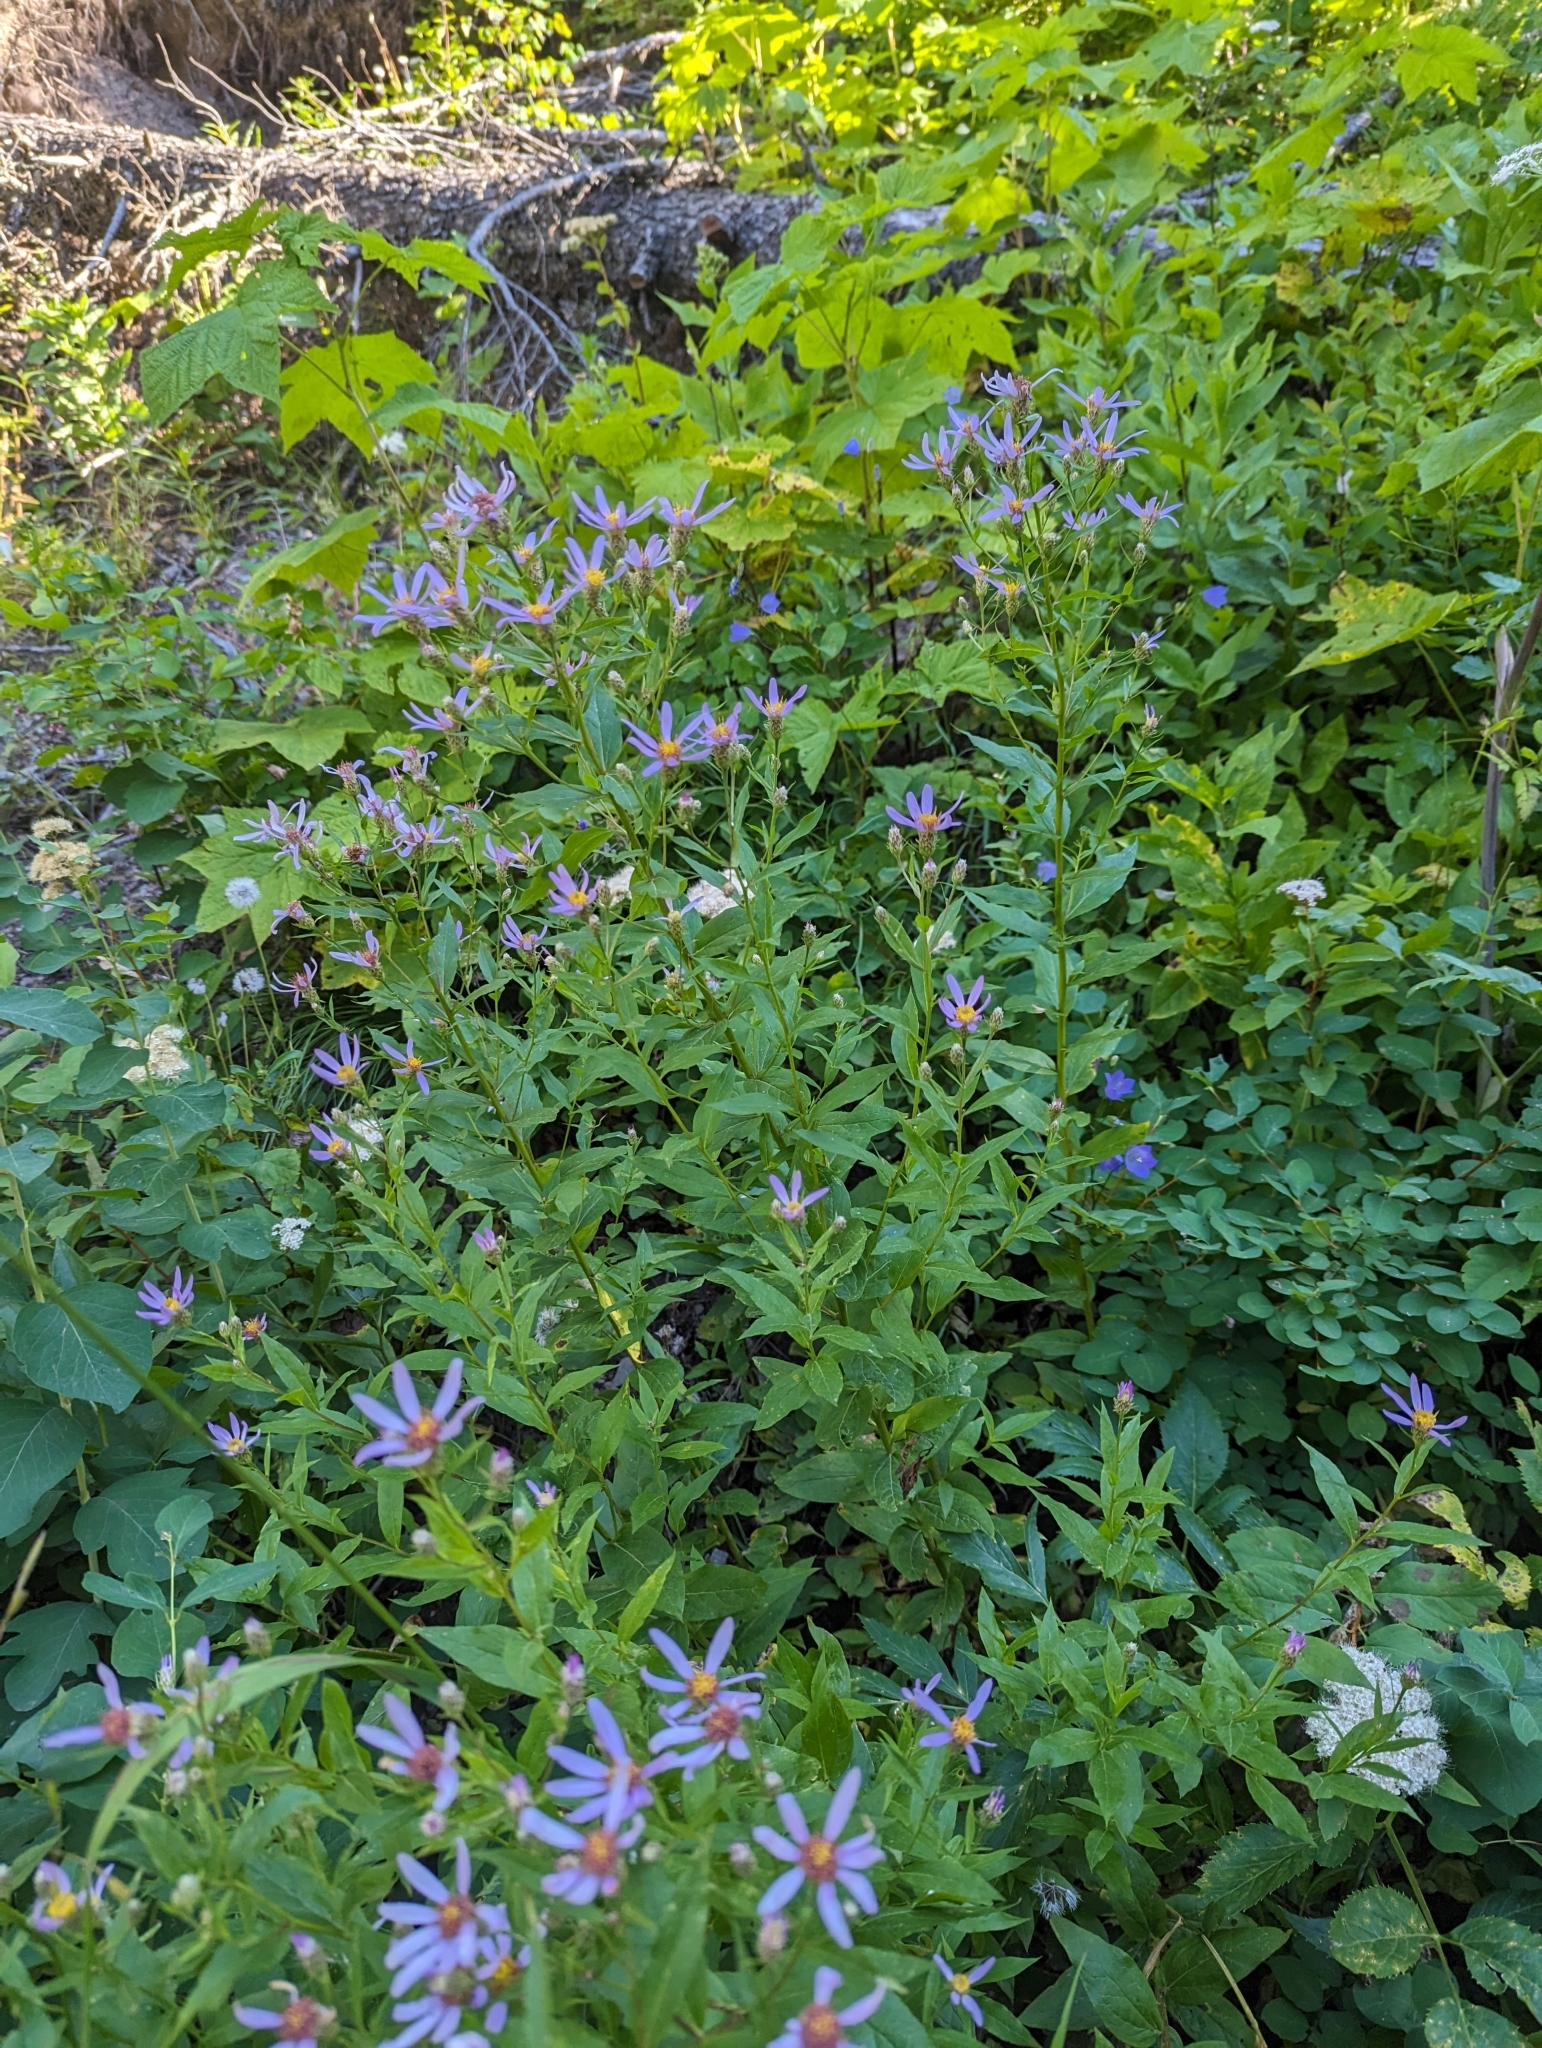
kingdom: Plantae
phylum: Tracheophyta
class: Magnoliopsida
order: Asterales
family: Asteraceae
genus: Eucephalus
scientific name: Eucephalus engelmannii
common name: Engelmann's aster
